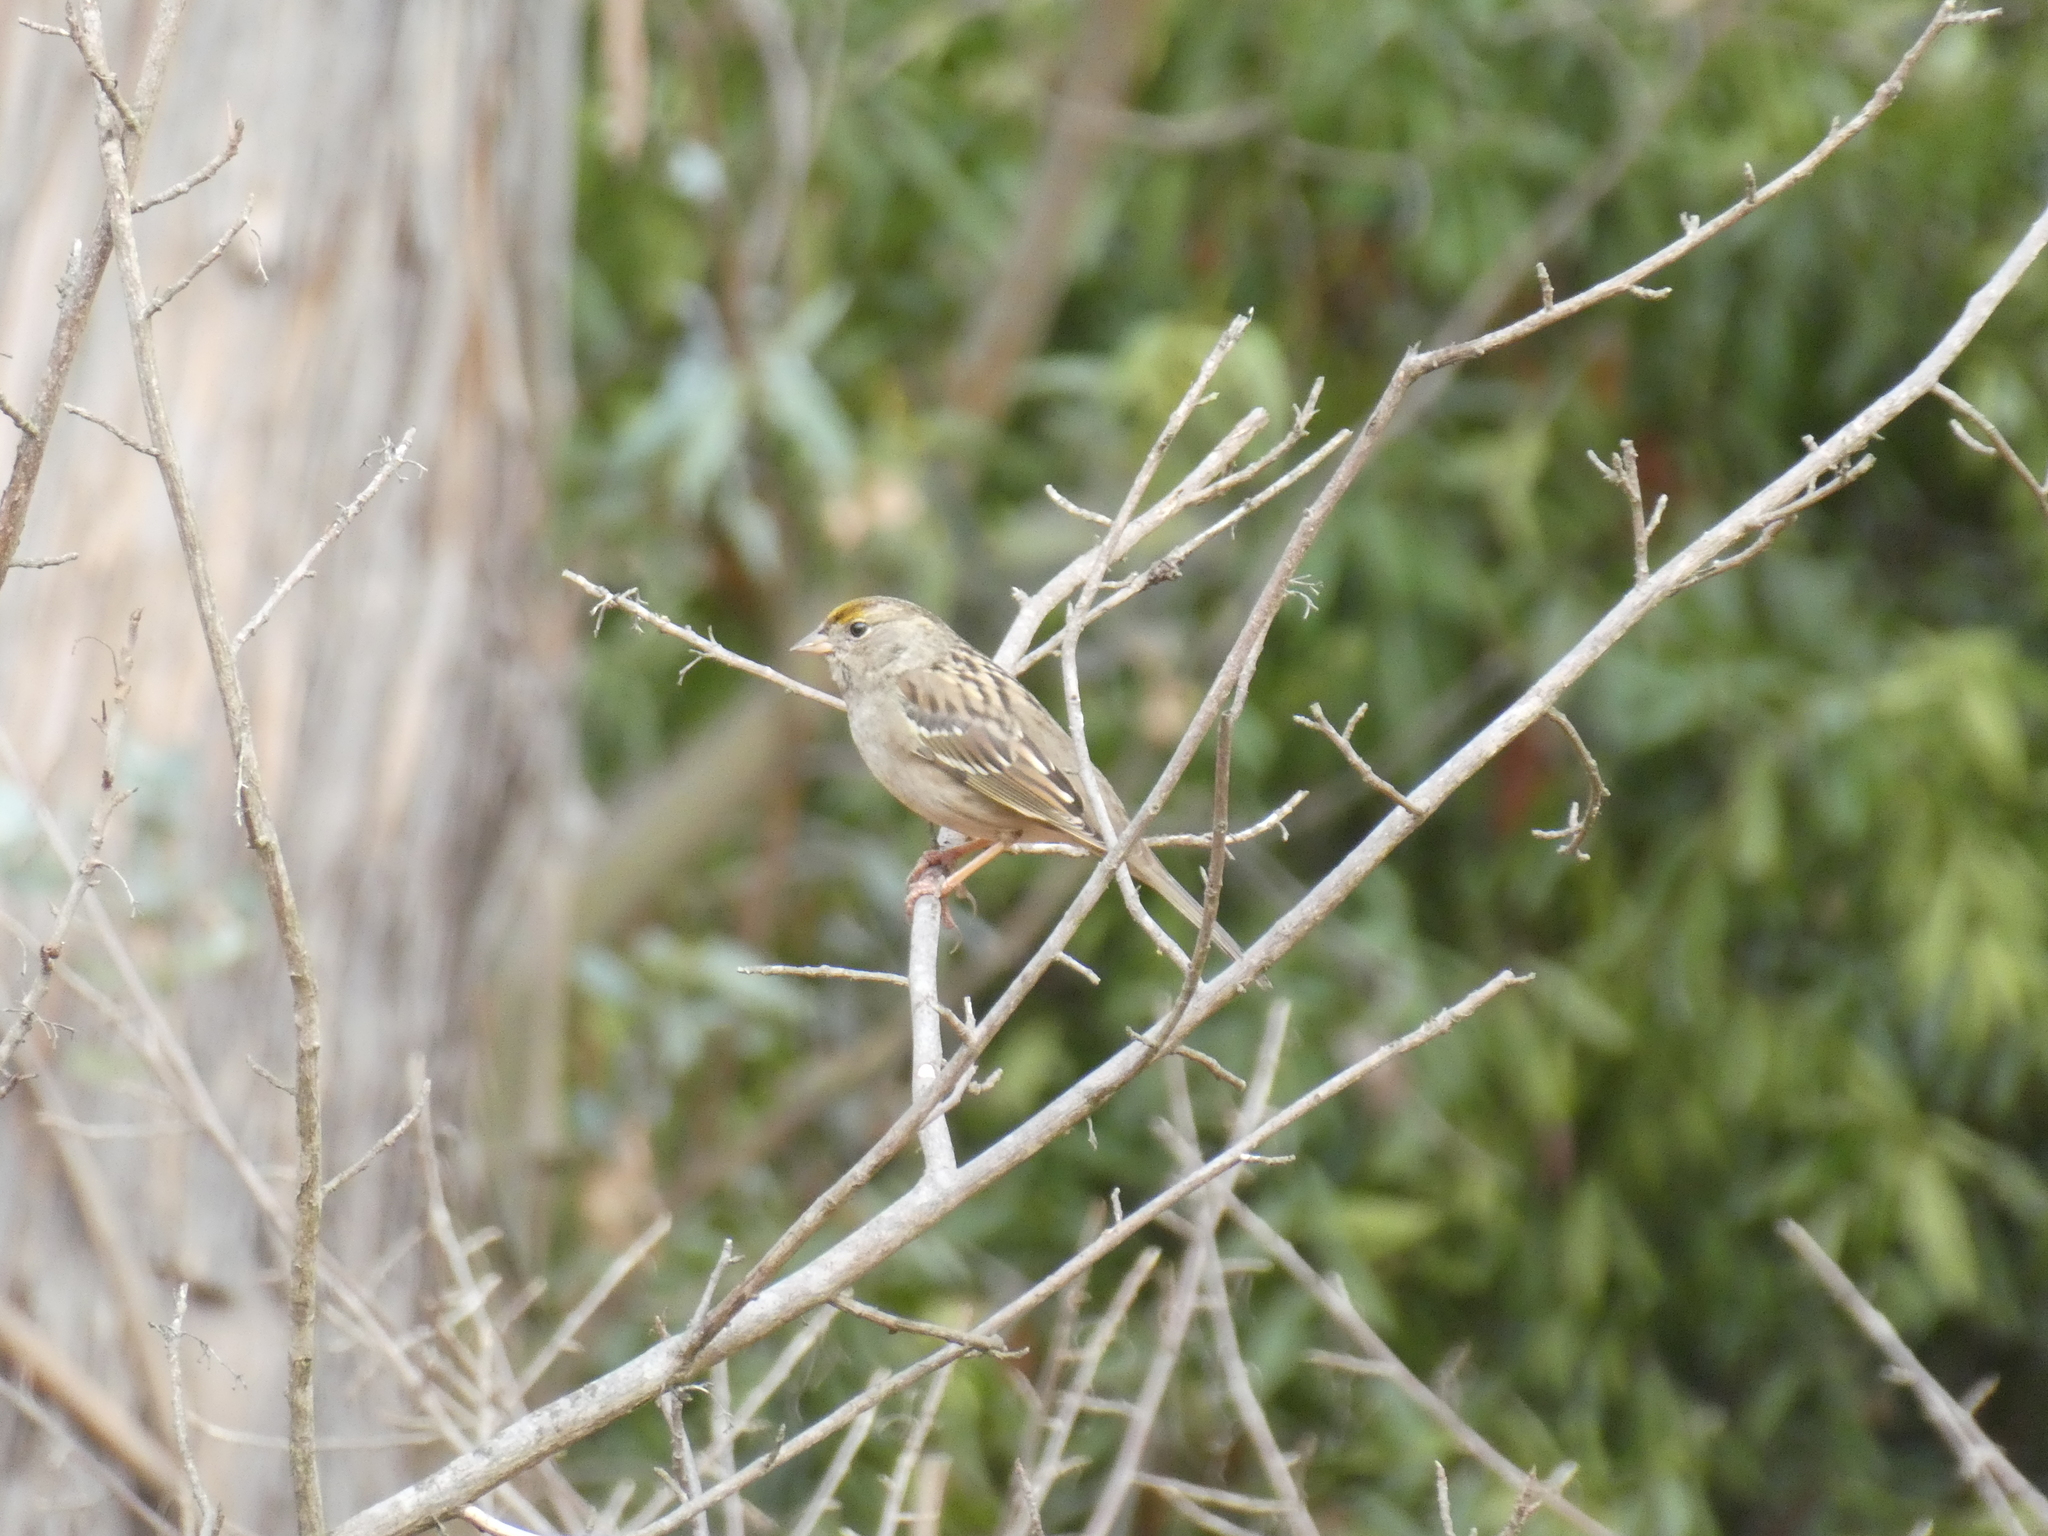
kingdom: Animalia
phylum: Chordata
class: Aves
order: Passeriformes
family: Passerellidae
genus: Zonotrichia
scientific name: Zonotrichia atricapilla
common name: Golden-crowned sparrow
